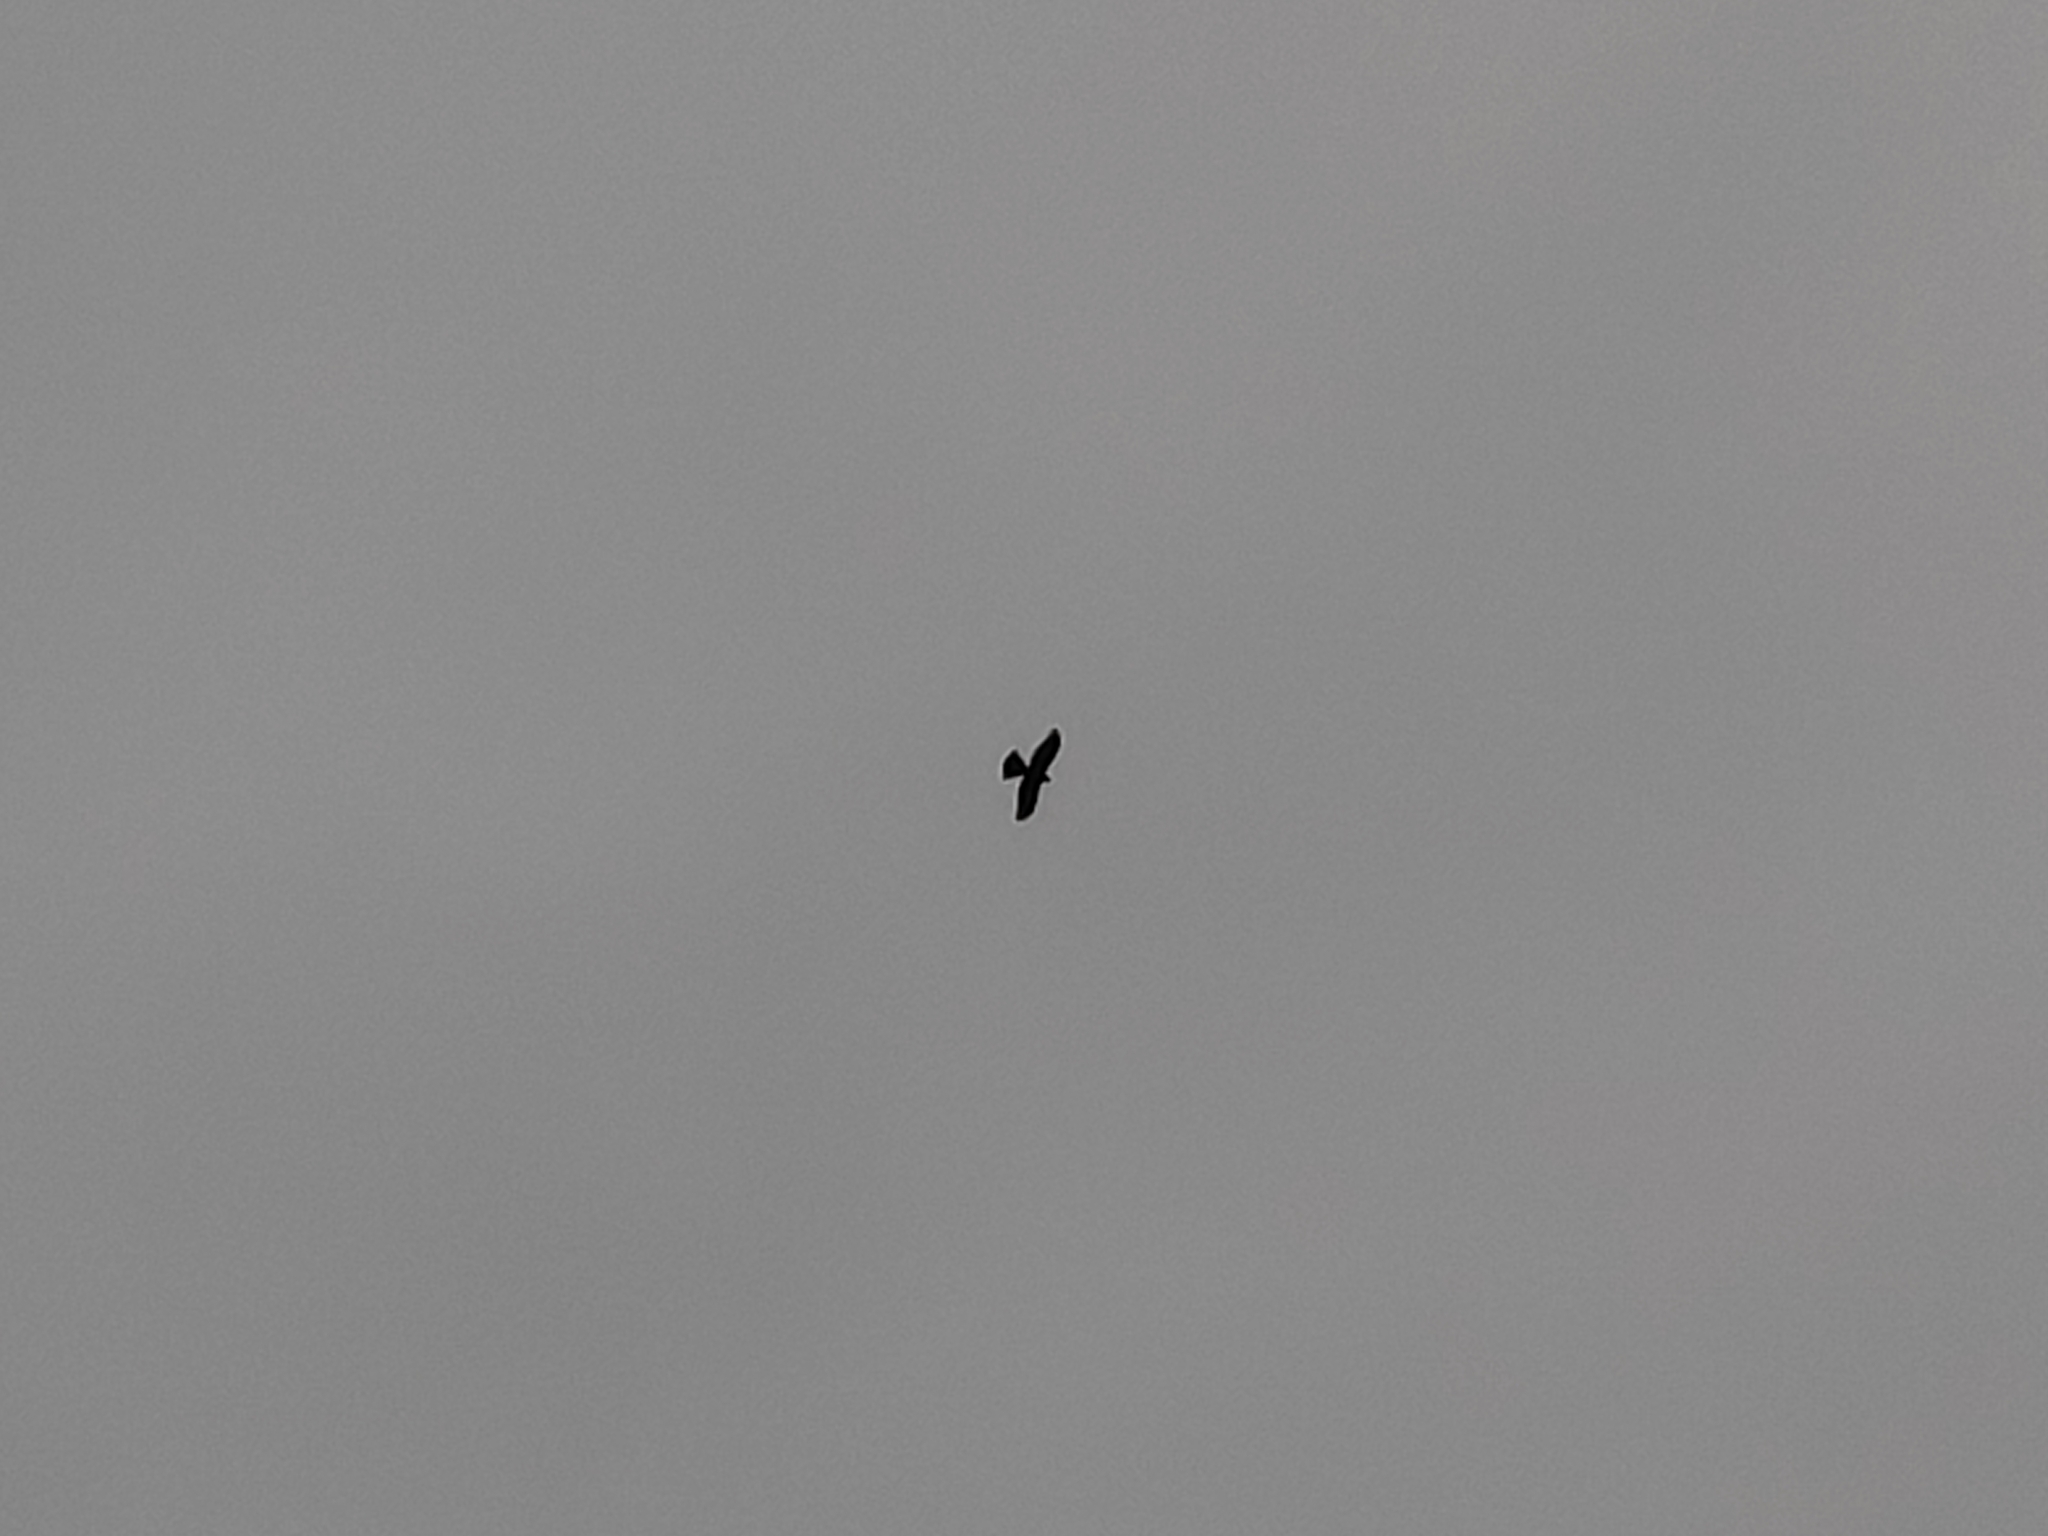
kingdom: Animalia
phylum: Chordata
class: Aves
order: Accipitriformes
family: Accipitridae
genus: Accipiter
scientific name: Accipiter nisus
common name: Eurasian sparrowhawk
